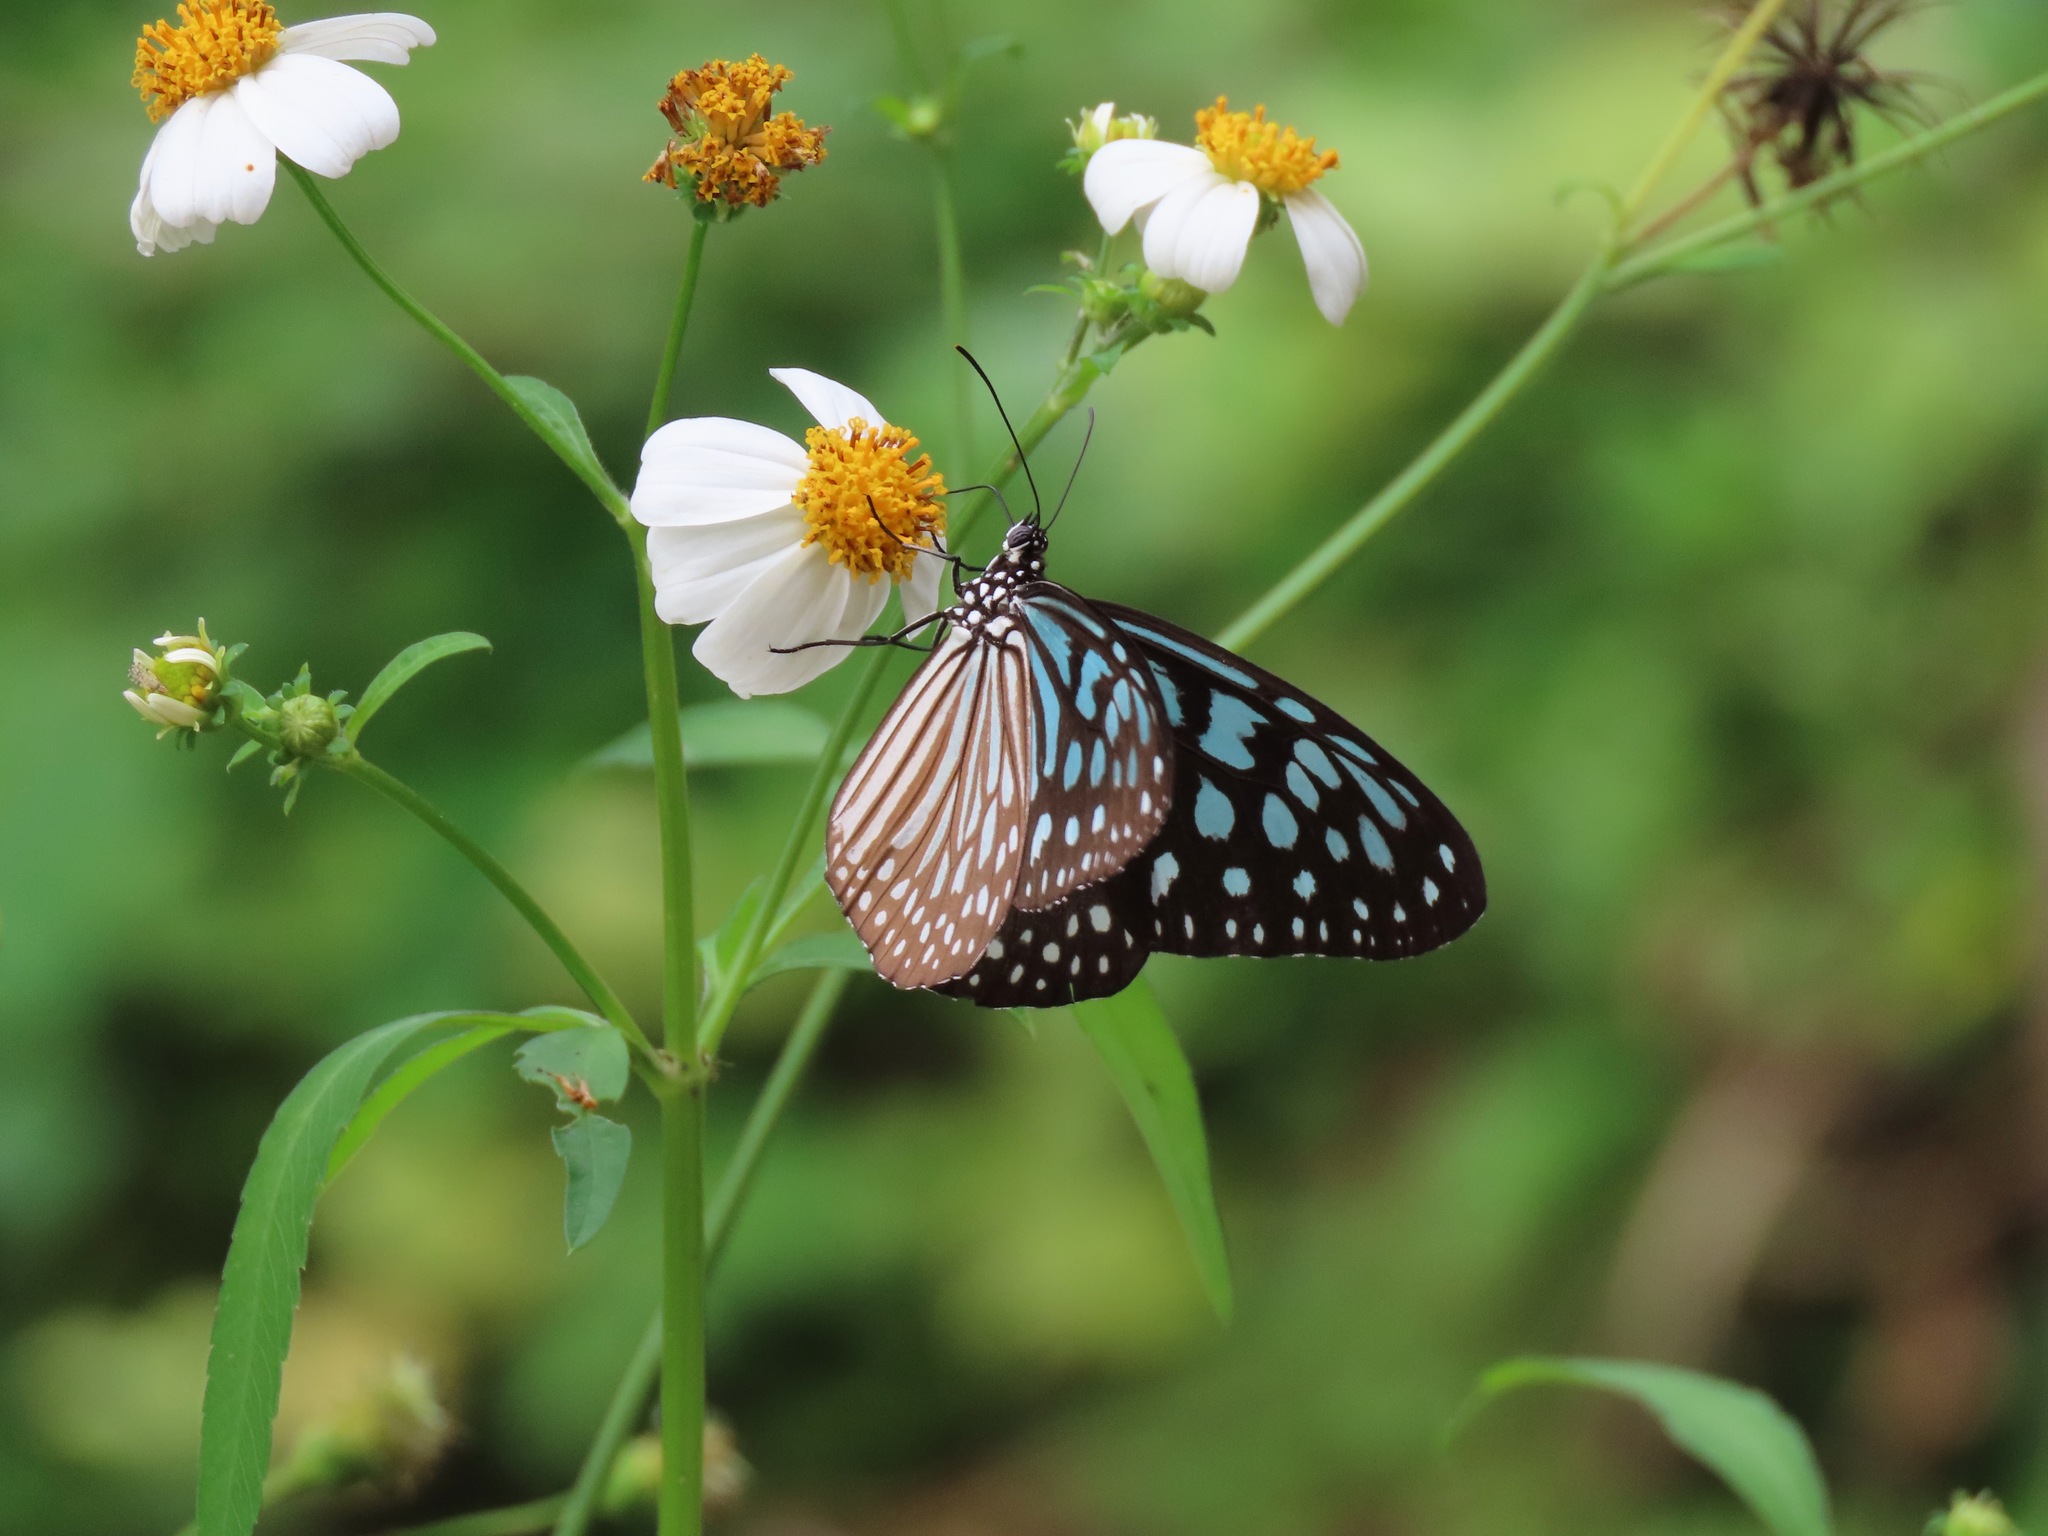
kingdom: Animalia
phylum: Arthropoda
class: Insecta
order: Lepidoptera
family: Nymphalidae
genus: Ideopsis
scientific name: Ideopsis similis
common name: Ceylon blue glassy tiger
